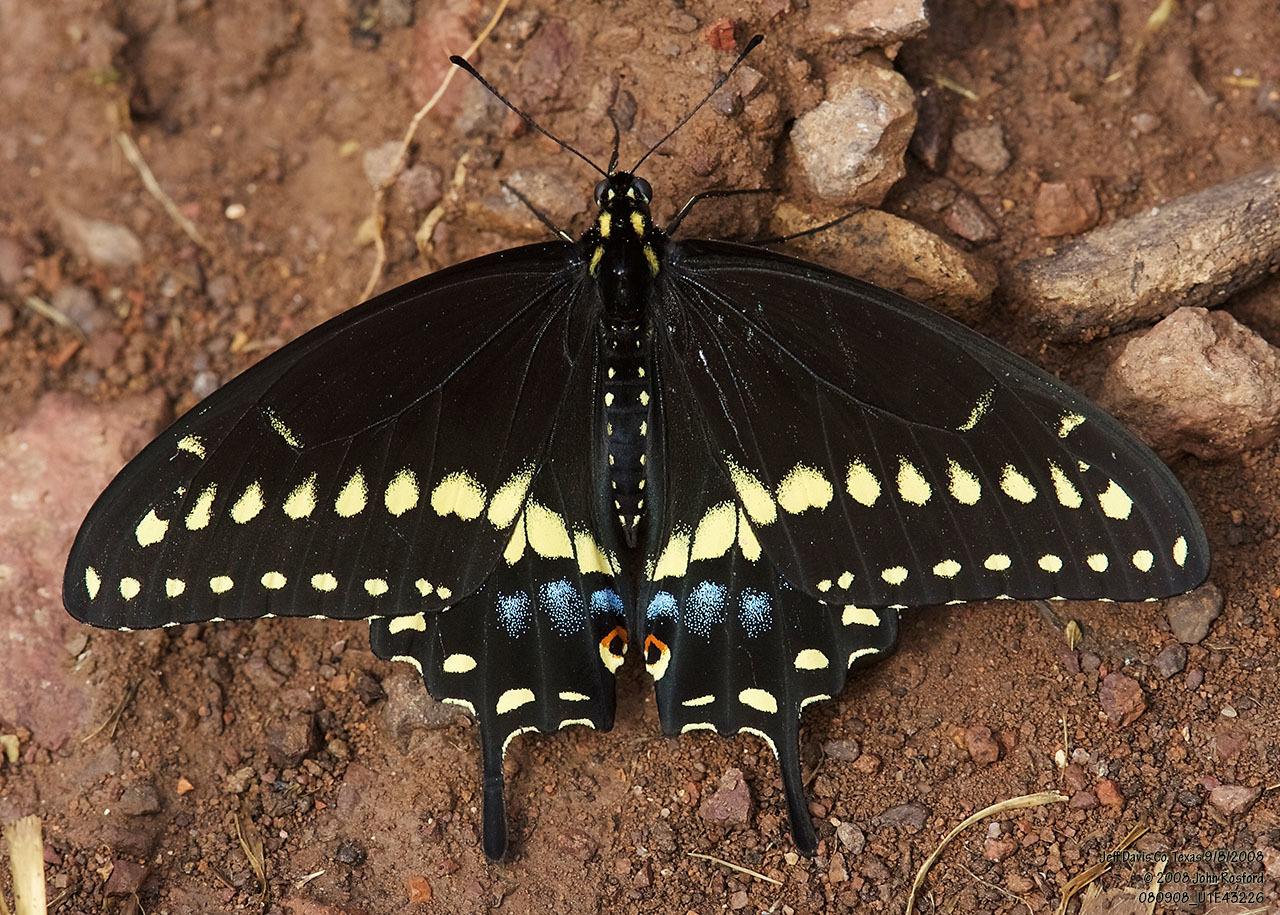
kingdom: Animalia
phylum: Arthropoda
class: Insecta
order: Lepidoptera
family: Papilionidae
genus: Papilio
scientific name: Papilio polyxenes
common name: Black swallowtail
